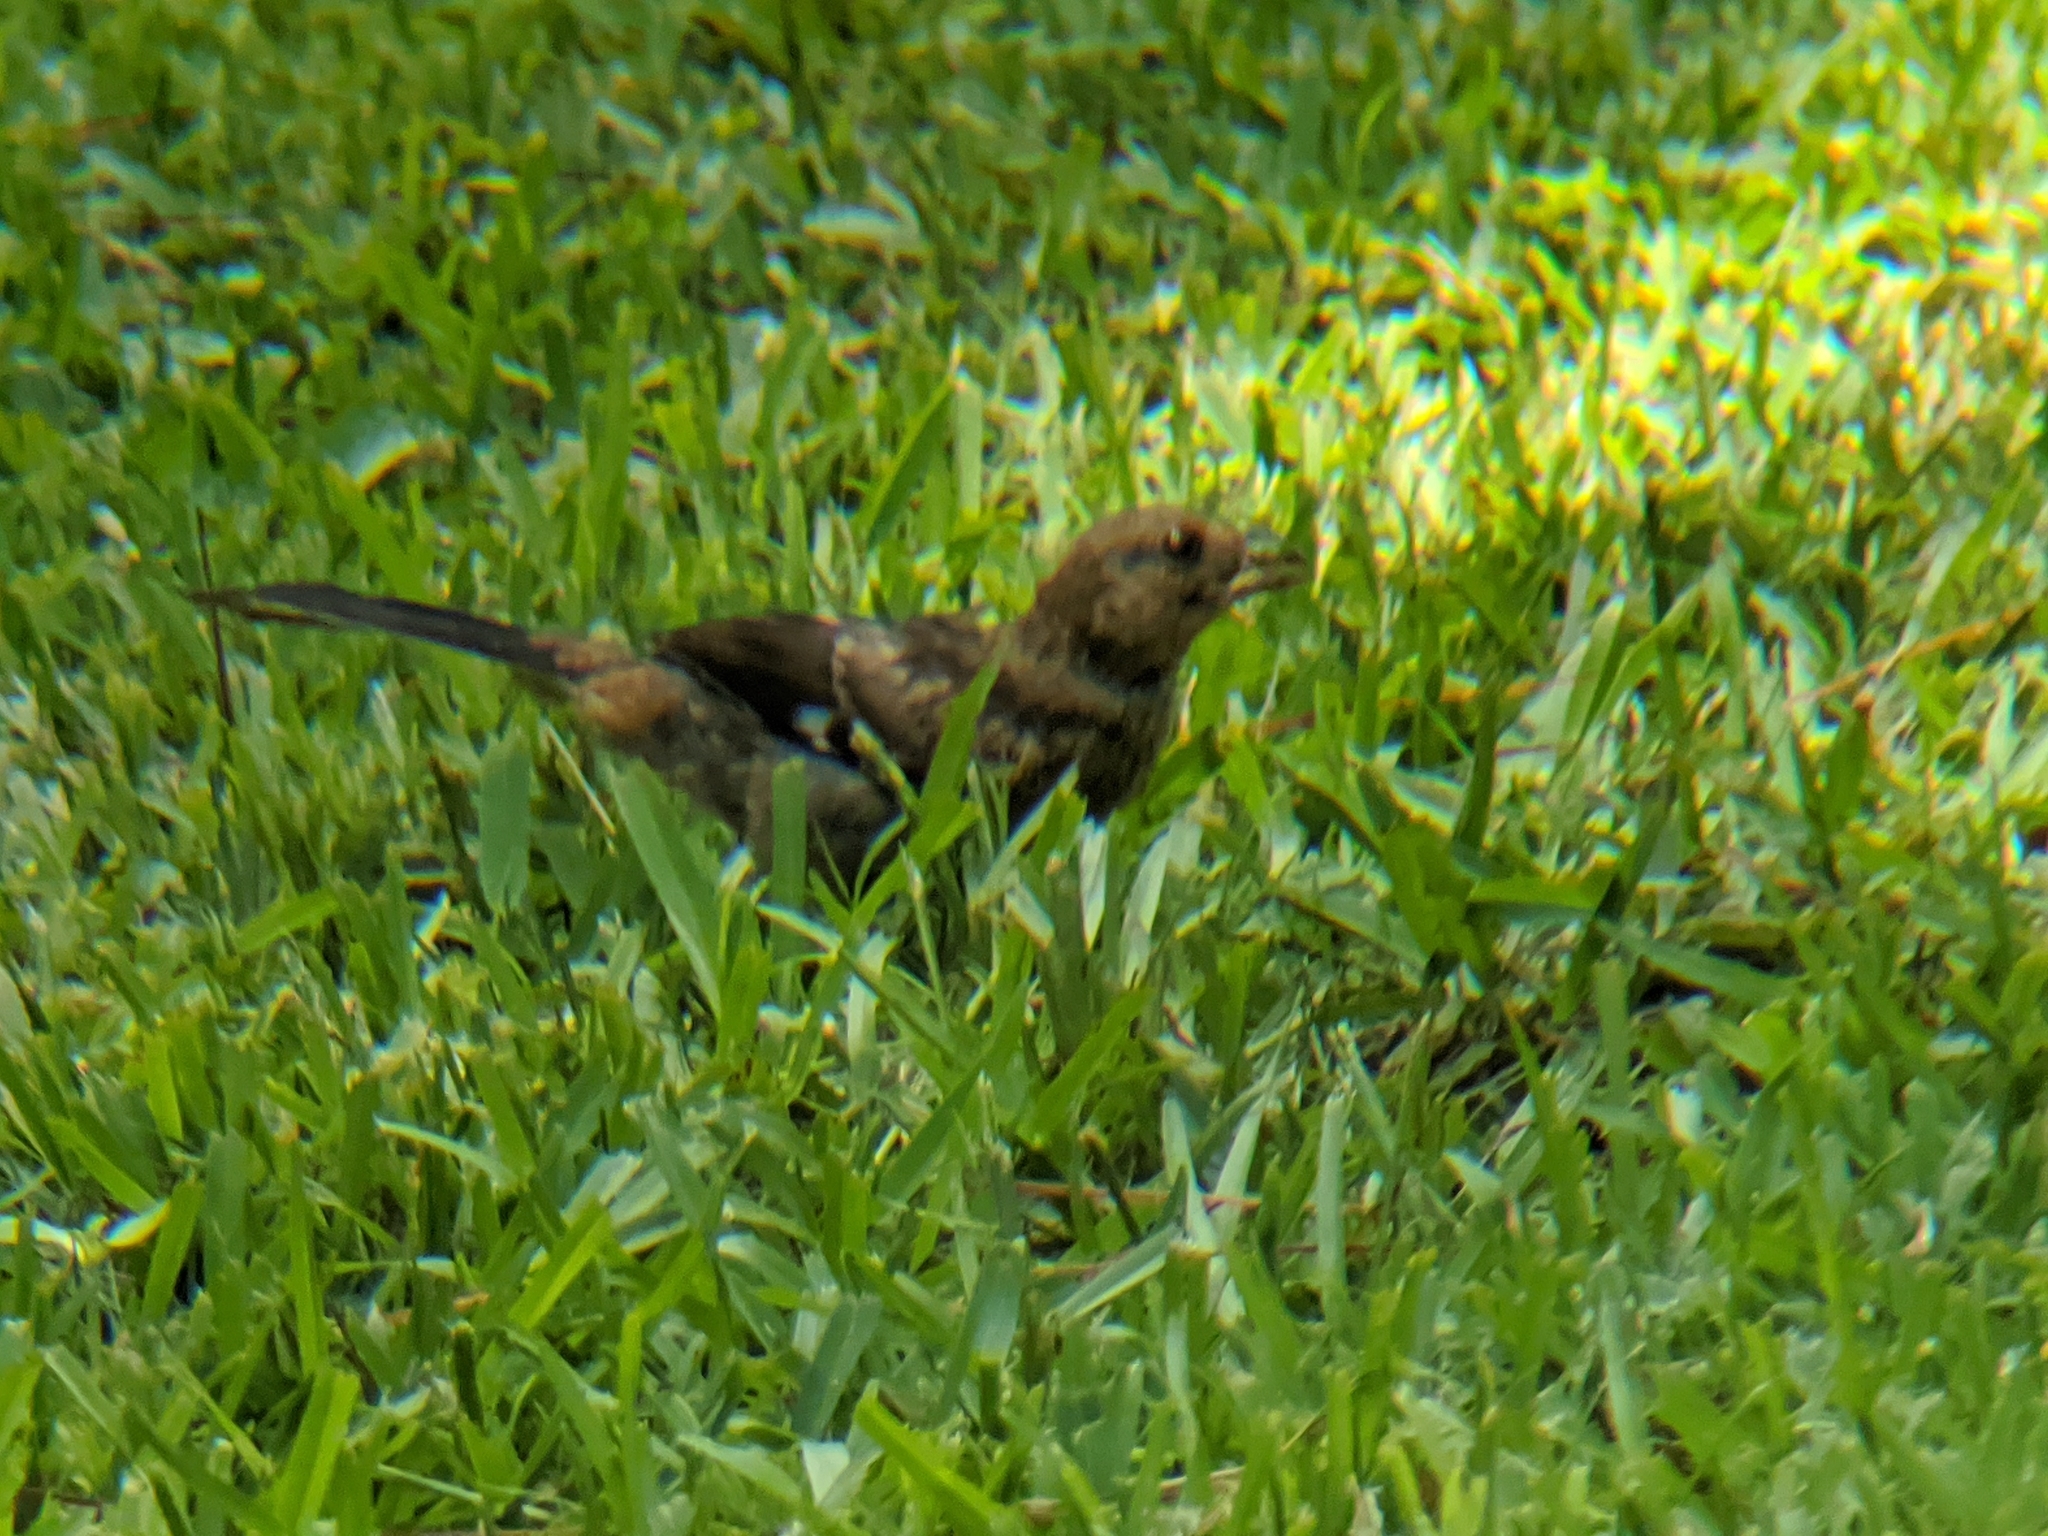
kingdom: Animalia
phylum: Chordata
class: Aves
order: Passeriformes
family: Passerellidae
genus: Pipilo
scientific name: Pipilo erythrophthalmus
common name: Eastern towhee
